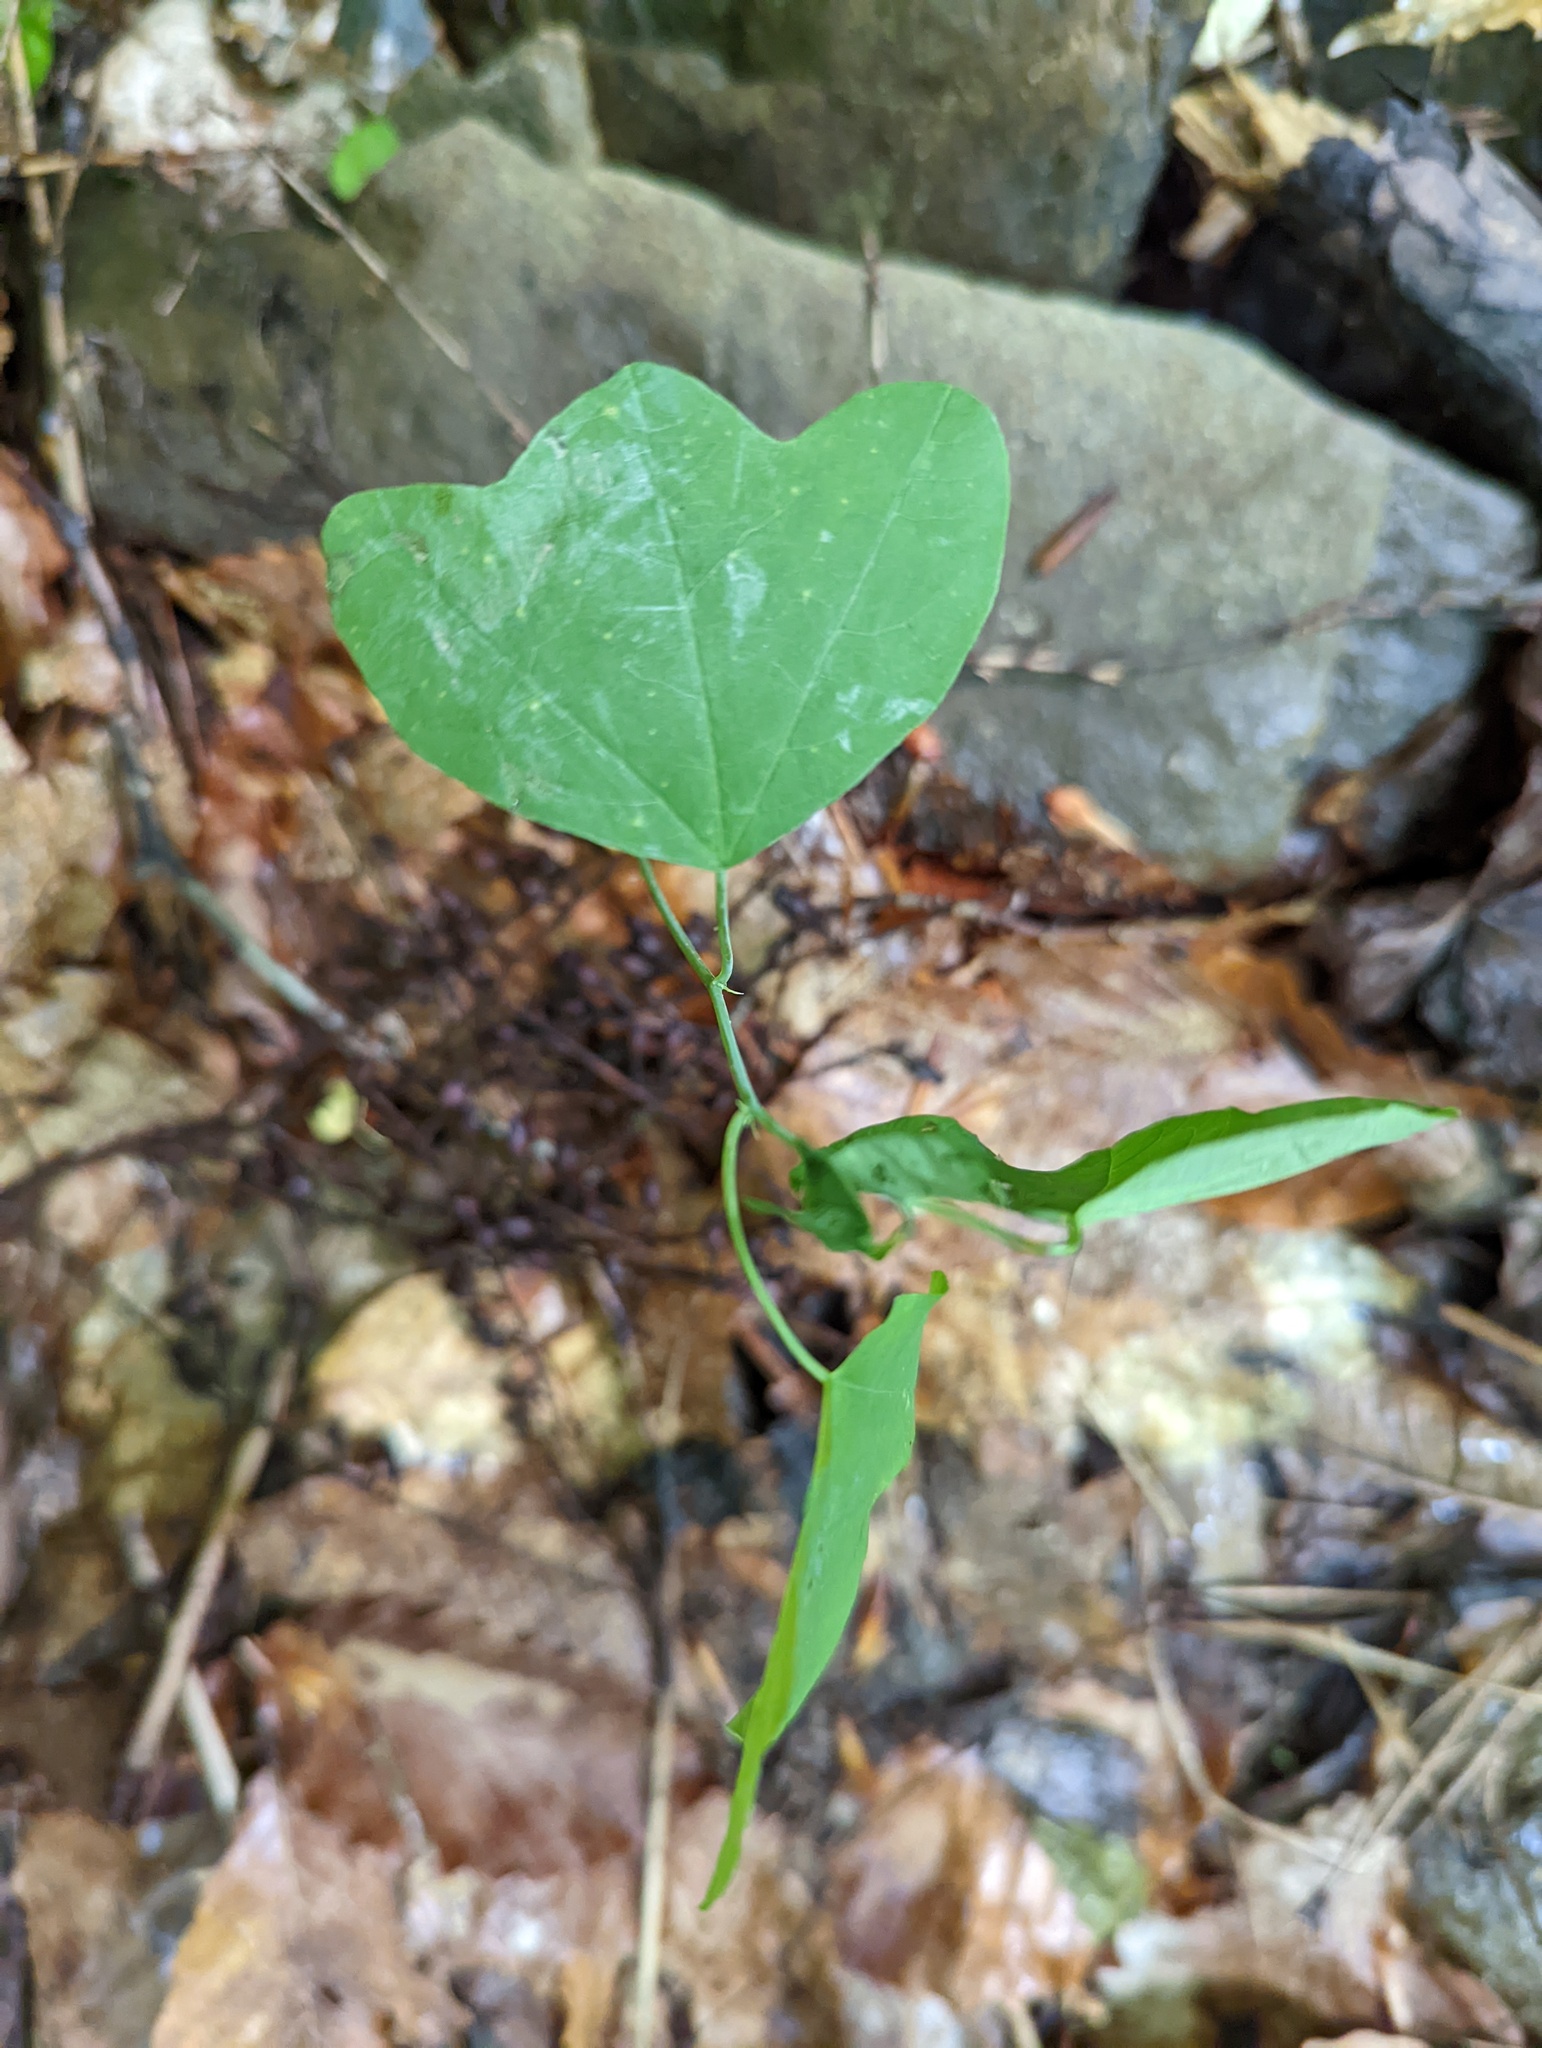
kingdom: Plantae
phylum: Tracheophyta
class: Magnoliopsida
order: Malpighiales
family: Passifloraceae
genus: Passiflora
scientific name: Passiflora lutea
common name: Yellow passionflower
